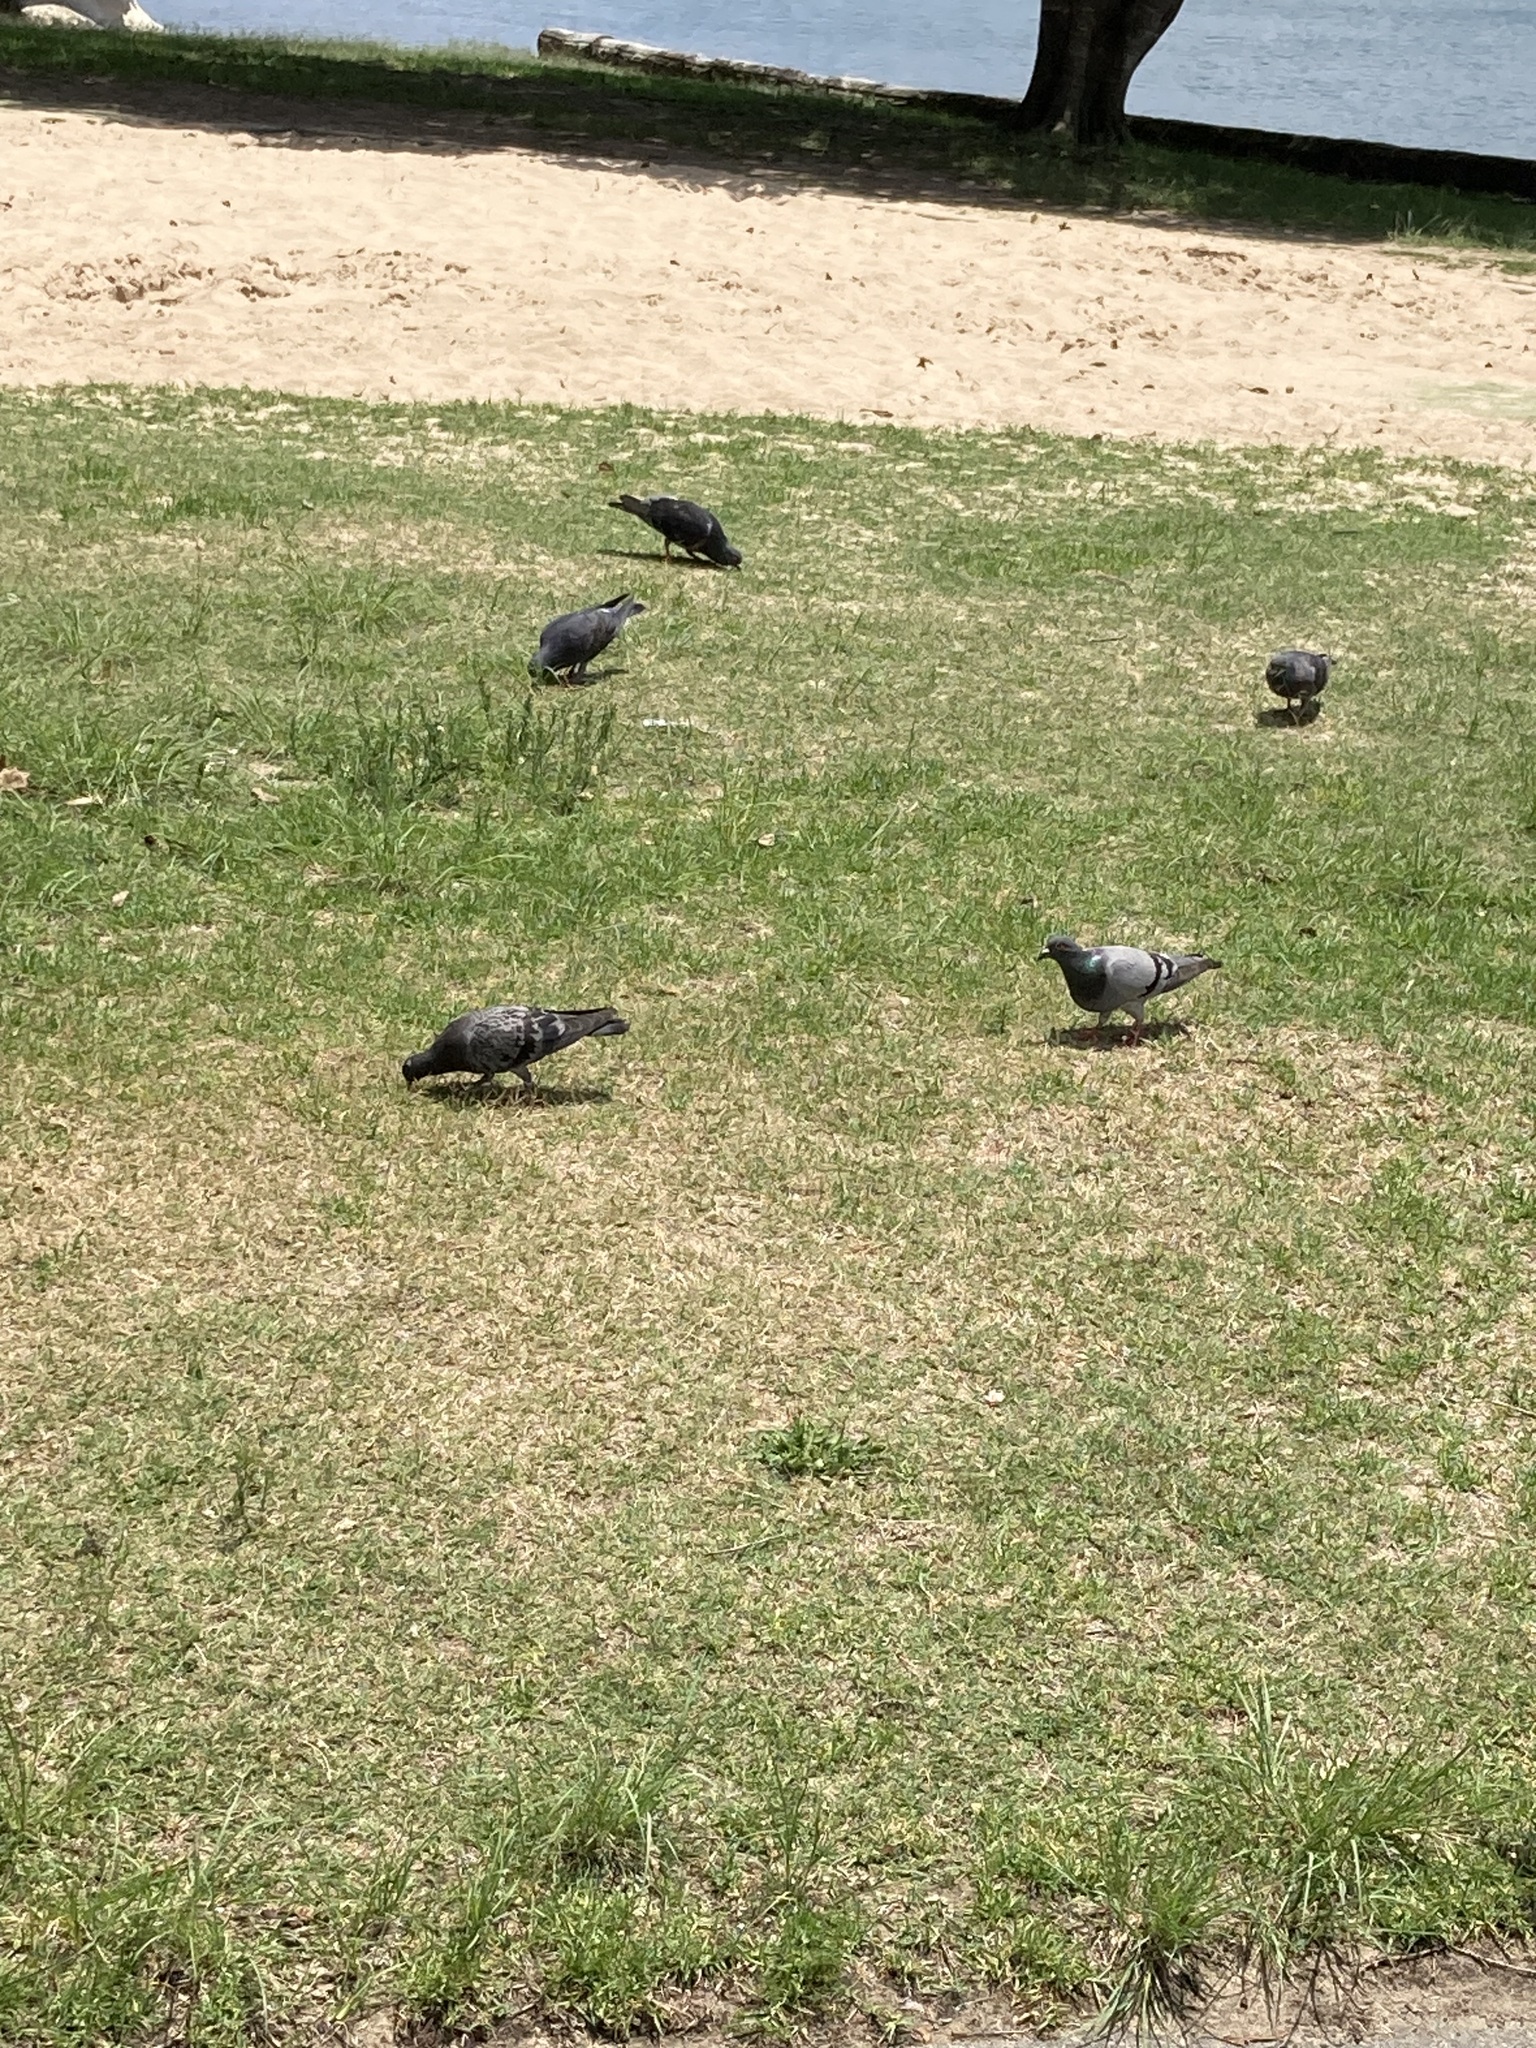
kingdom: Animalia
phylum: Chordata
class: Aves
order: Columbiformes
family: Columbidae
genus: Columba
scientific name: Columba livia
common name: Rock pigeon
